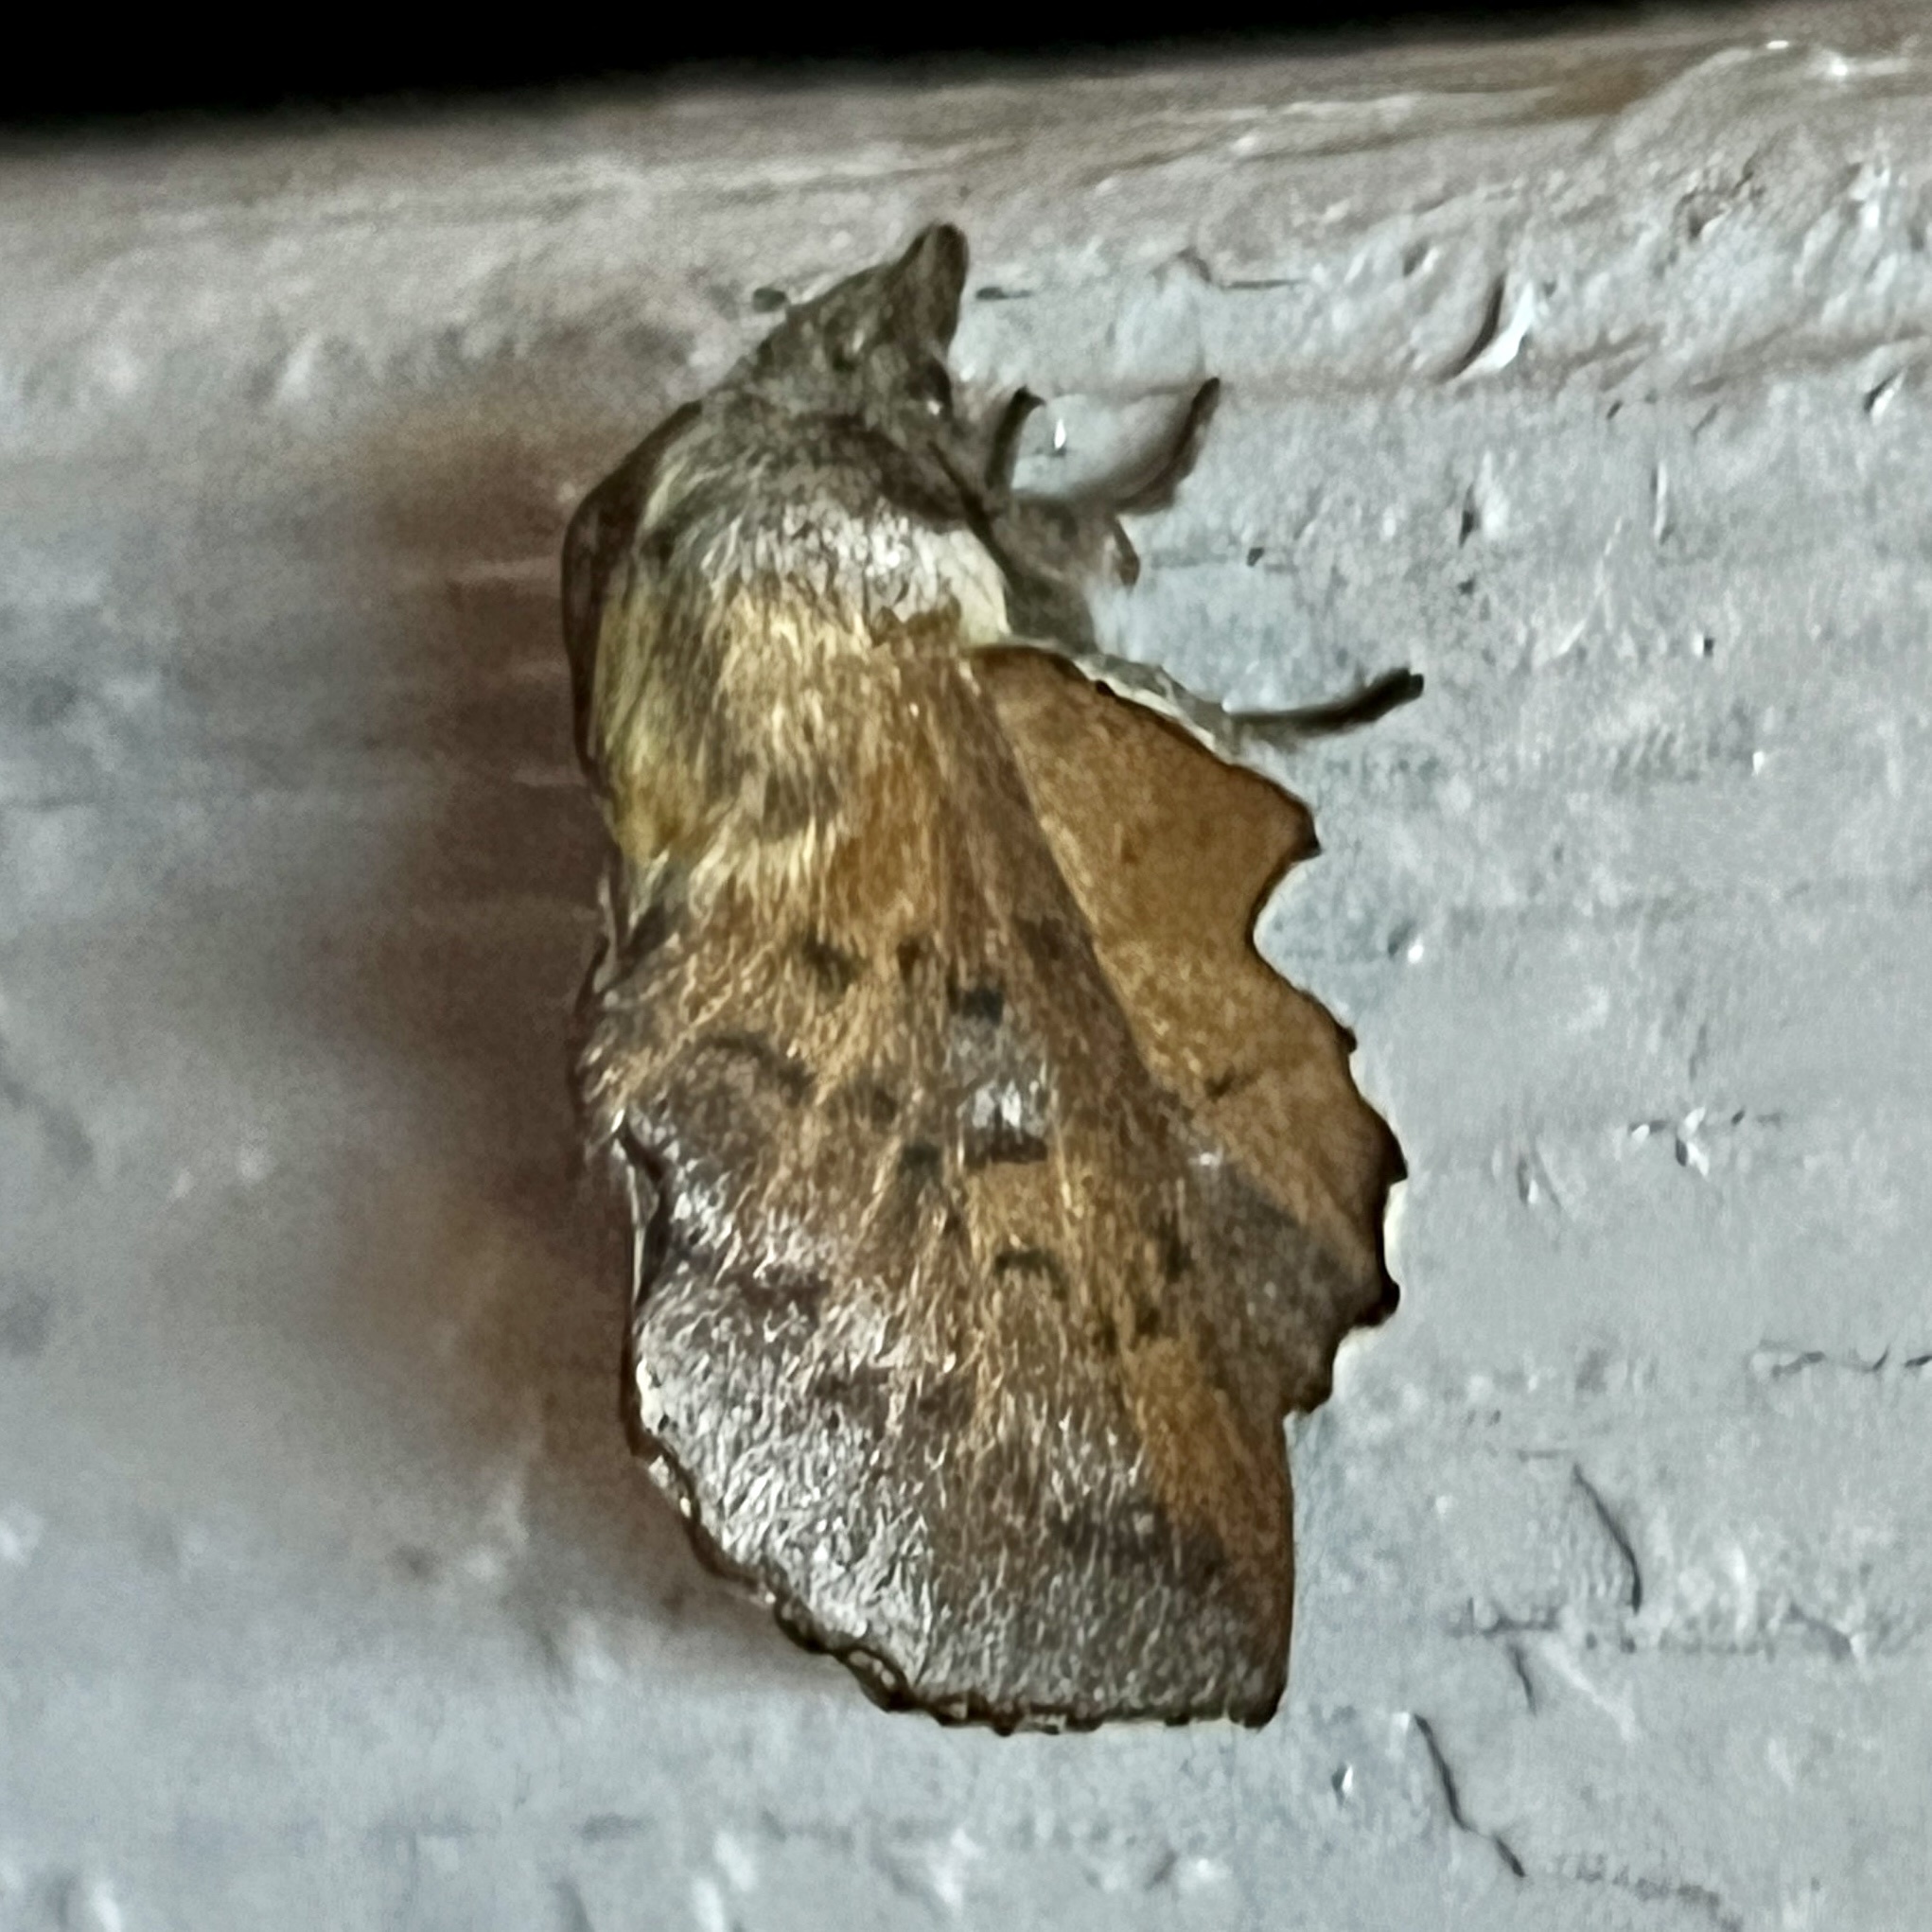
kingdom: Animalia
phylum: Arthropoda
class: Insecta
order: Lepidoptera
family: Lasiocampidae
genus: Phyllodesma
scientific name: Phyllodesma americana
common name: American lappet moth
